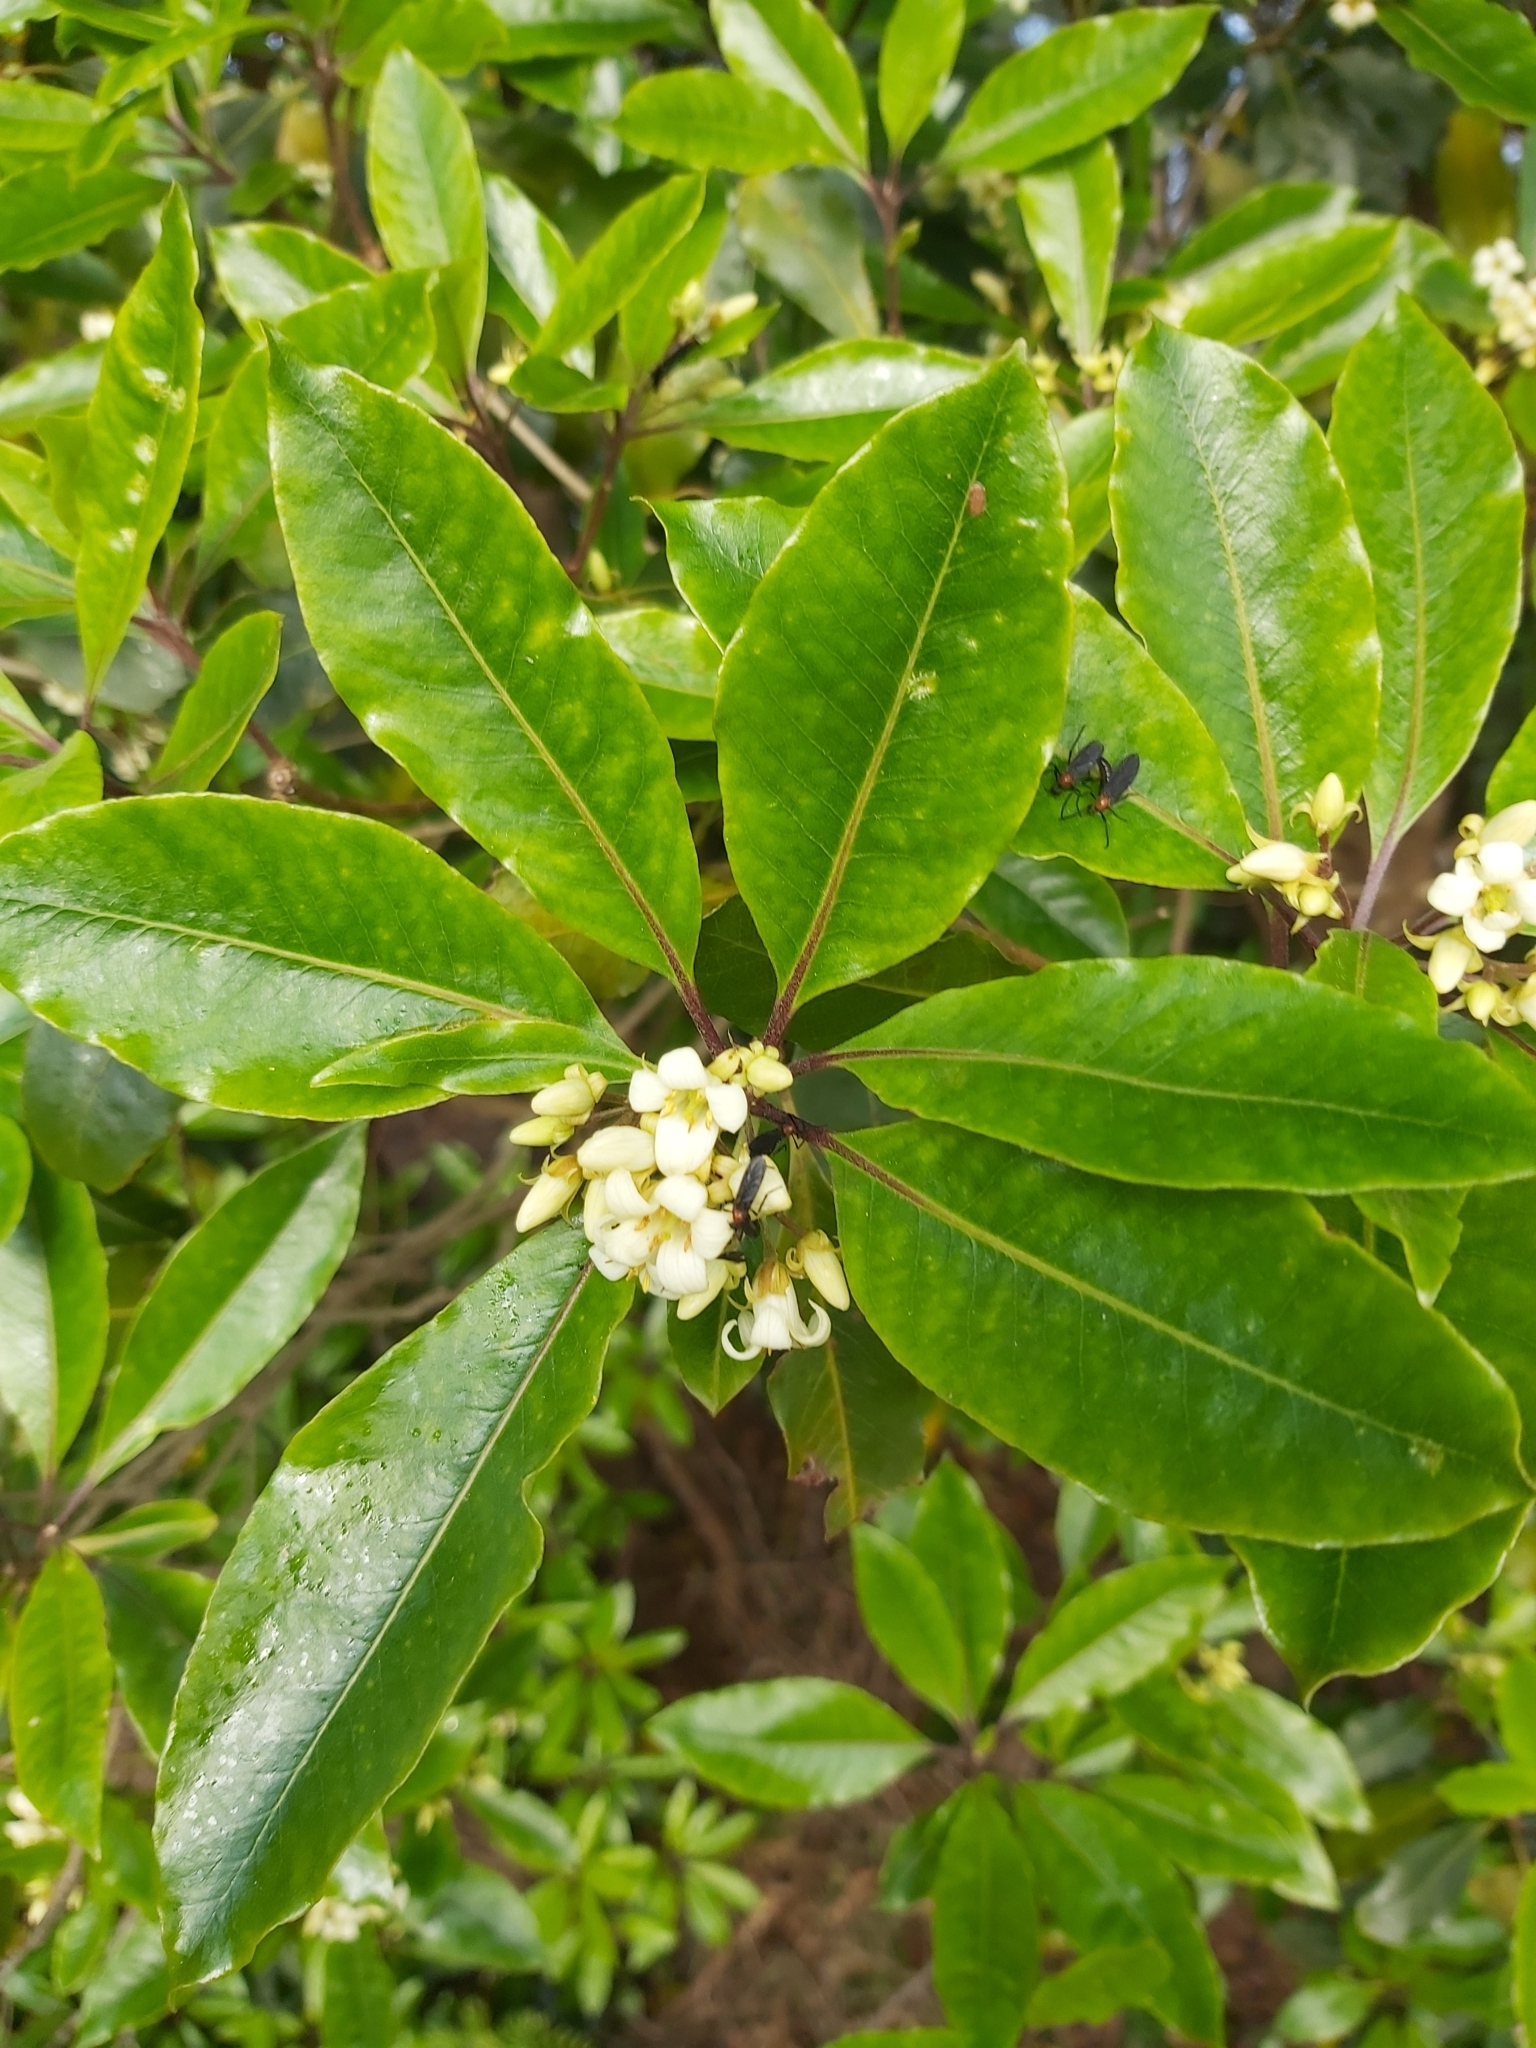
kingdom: Plantae
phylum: Tracheophyta
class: Magnoliopsida
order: Apiales
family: Pittosporaceae
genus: Pittosporum
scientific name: Pittosporum undulatum
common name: Australian cheesewood
